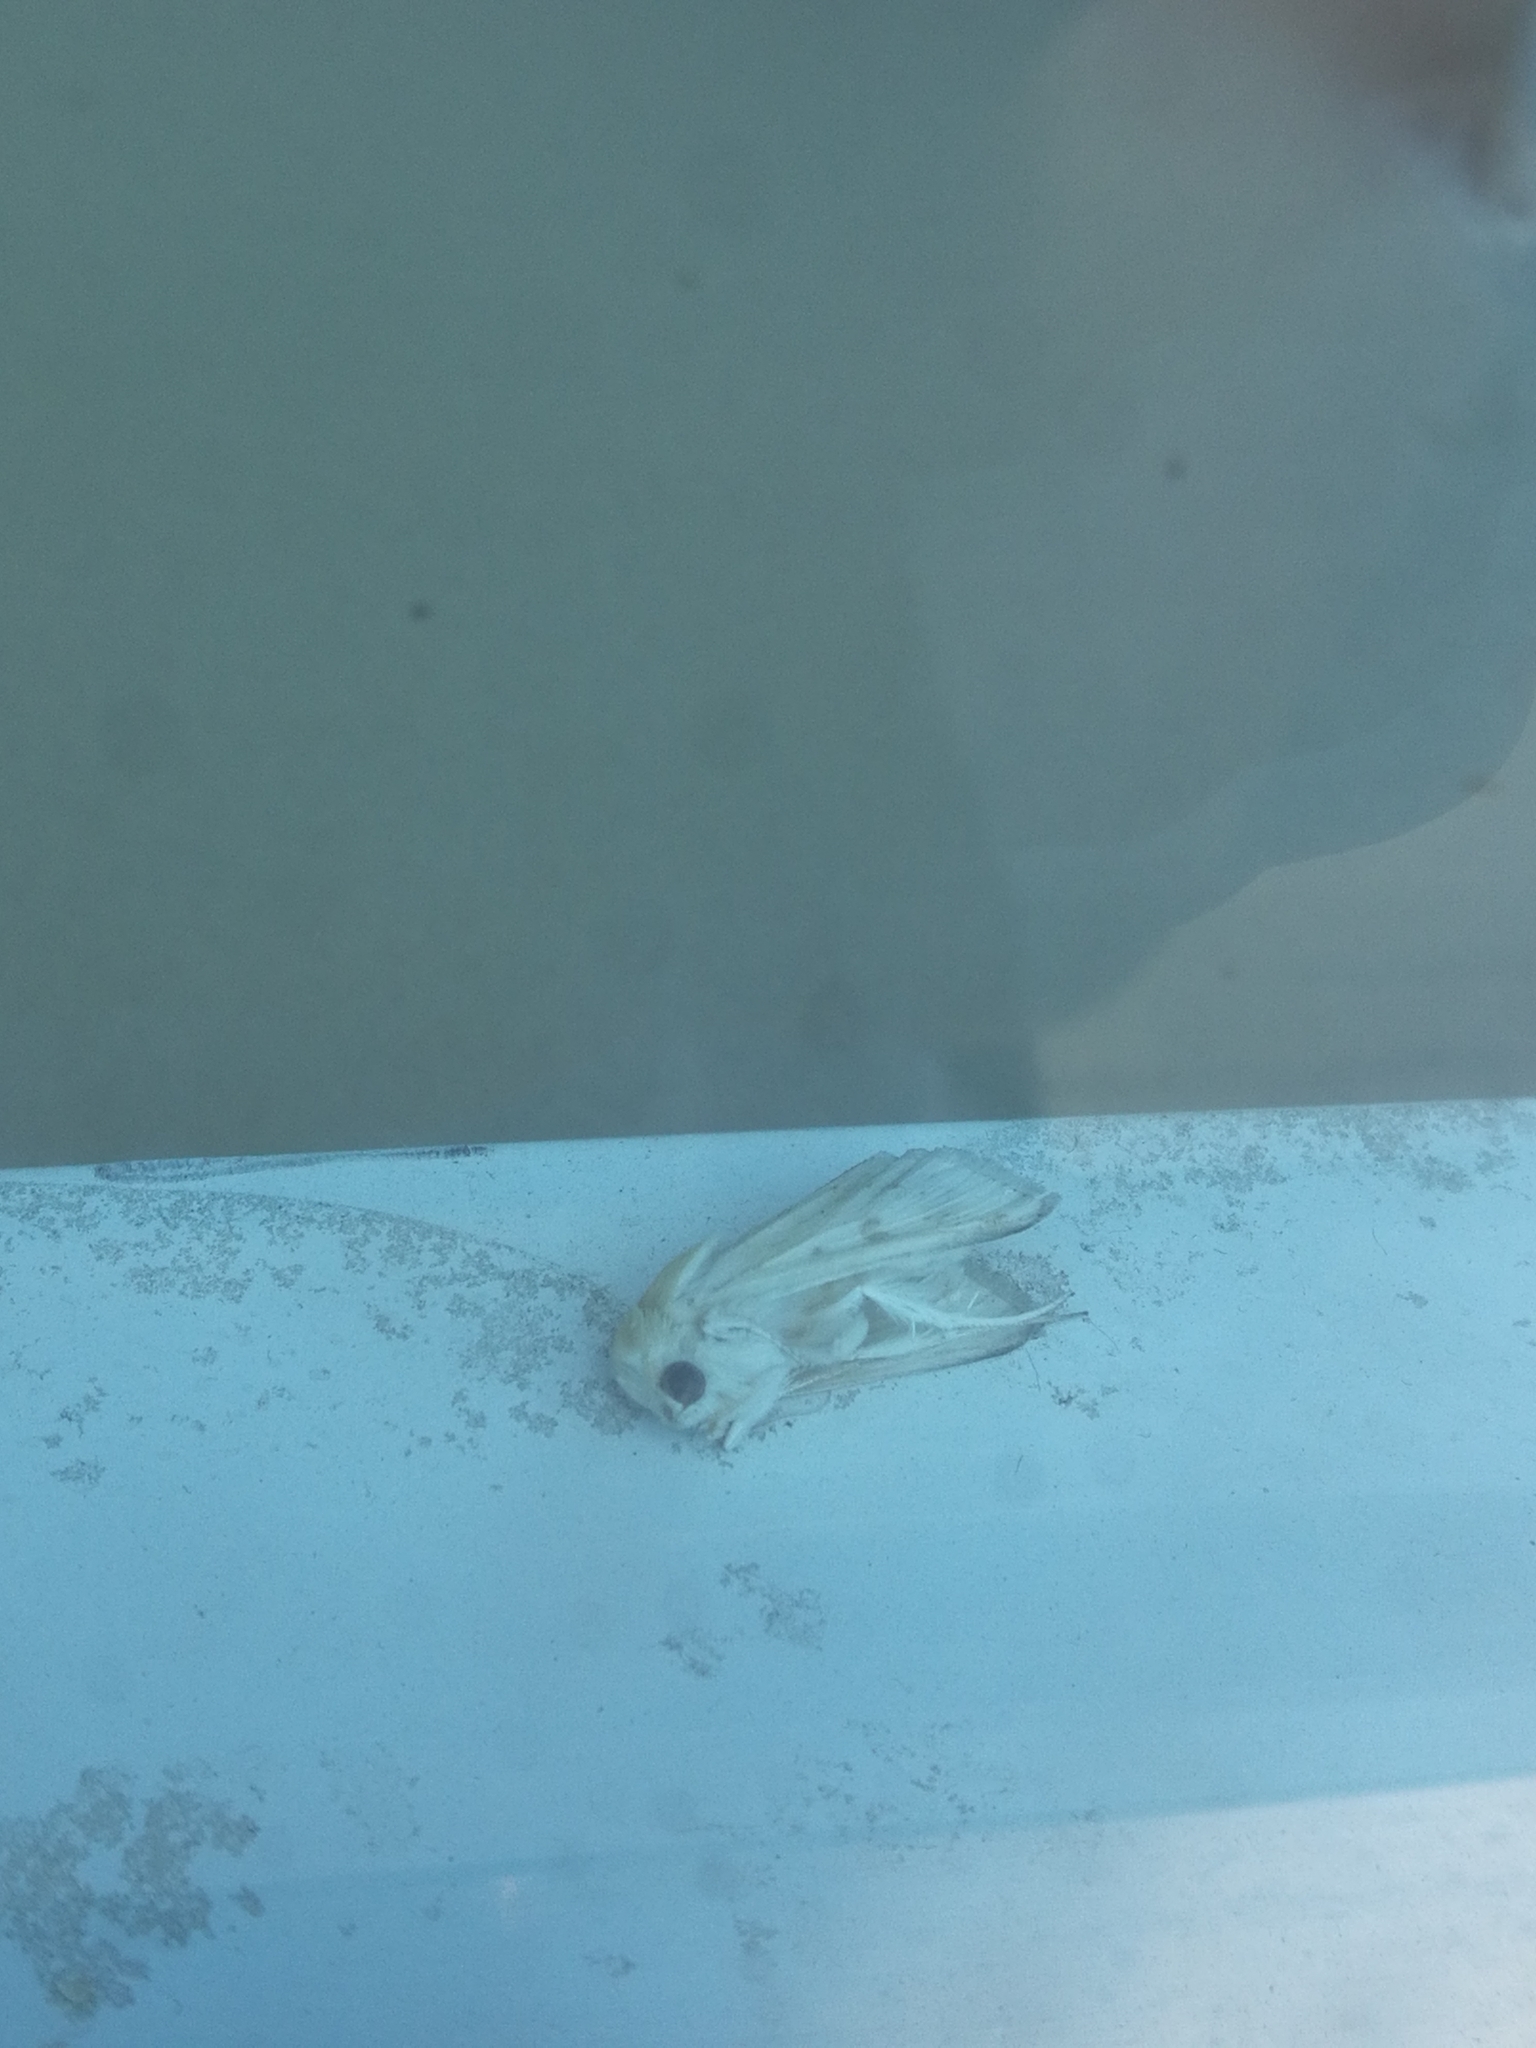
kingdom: Animalia
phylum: Arthropoda
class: Insecta
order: Lepidoptera
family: Noctuidae
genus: Helicoverpa
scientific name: Helicoverpa armigera
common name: Cotton bollworm
